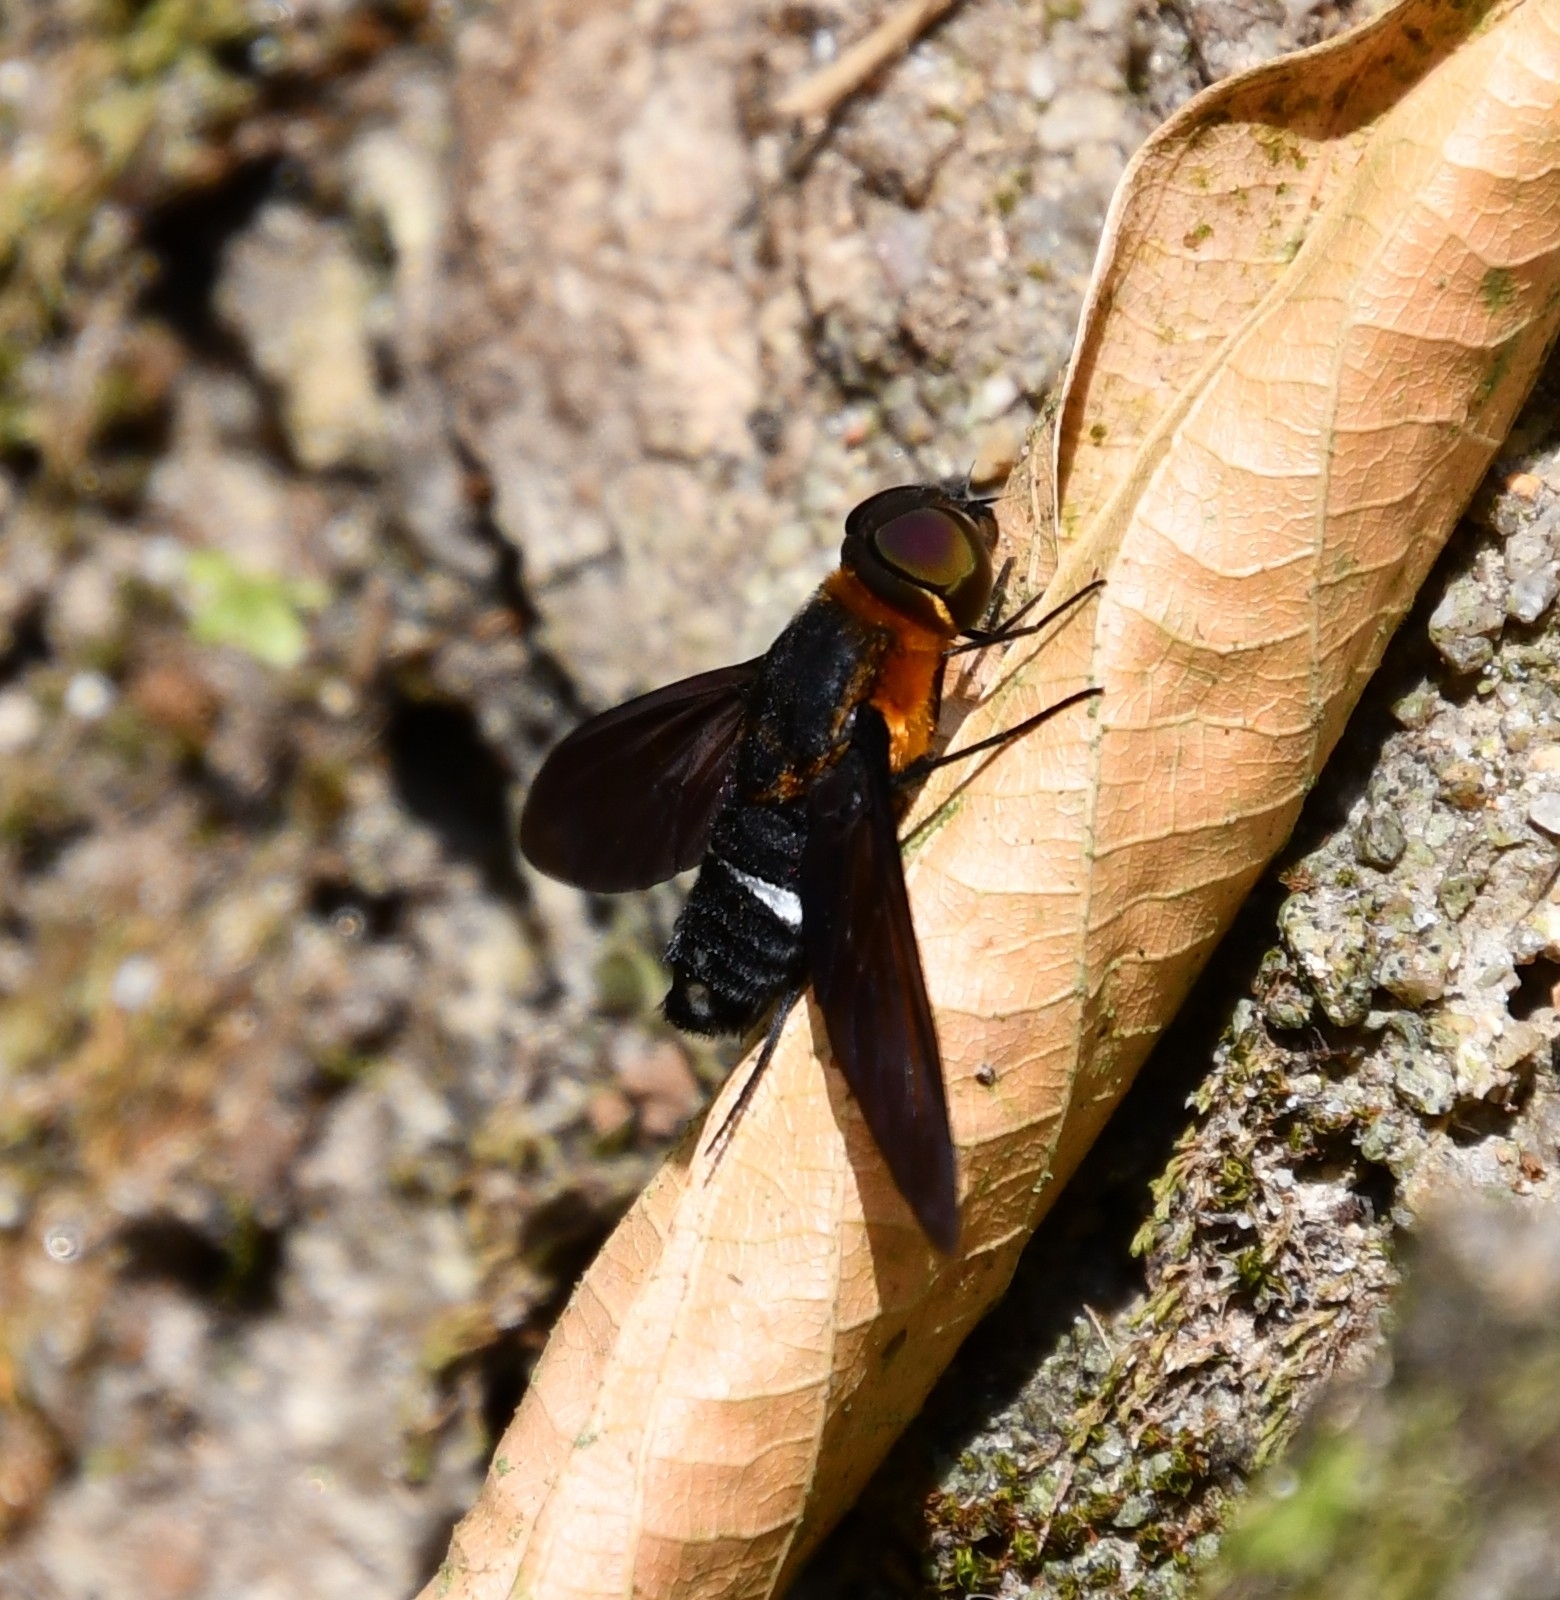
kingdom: Animalia
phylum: Arthropoda
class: Insecta
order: Diptera
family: Bombyliidae
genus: Ligyra
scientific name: Ligyra tantalus
